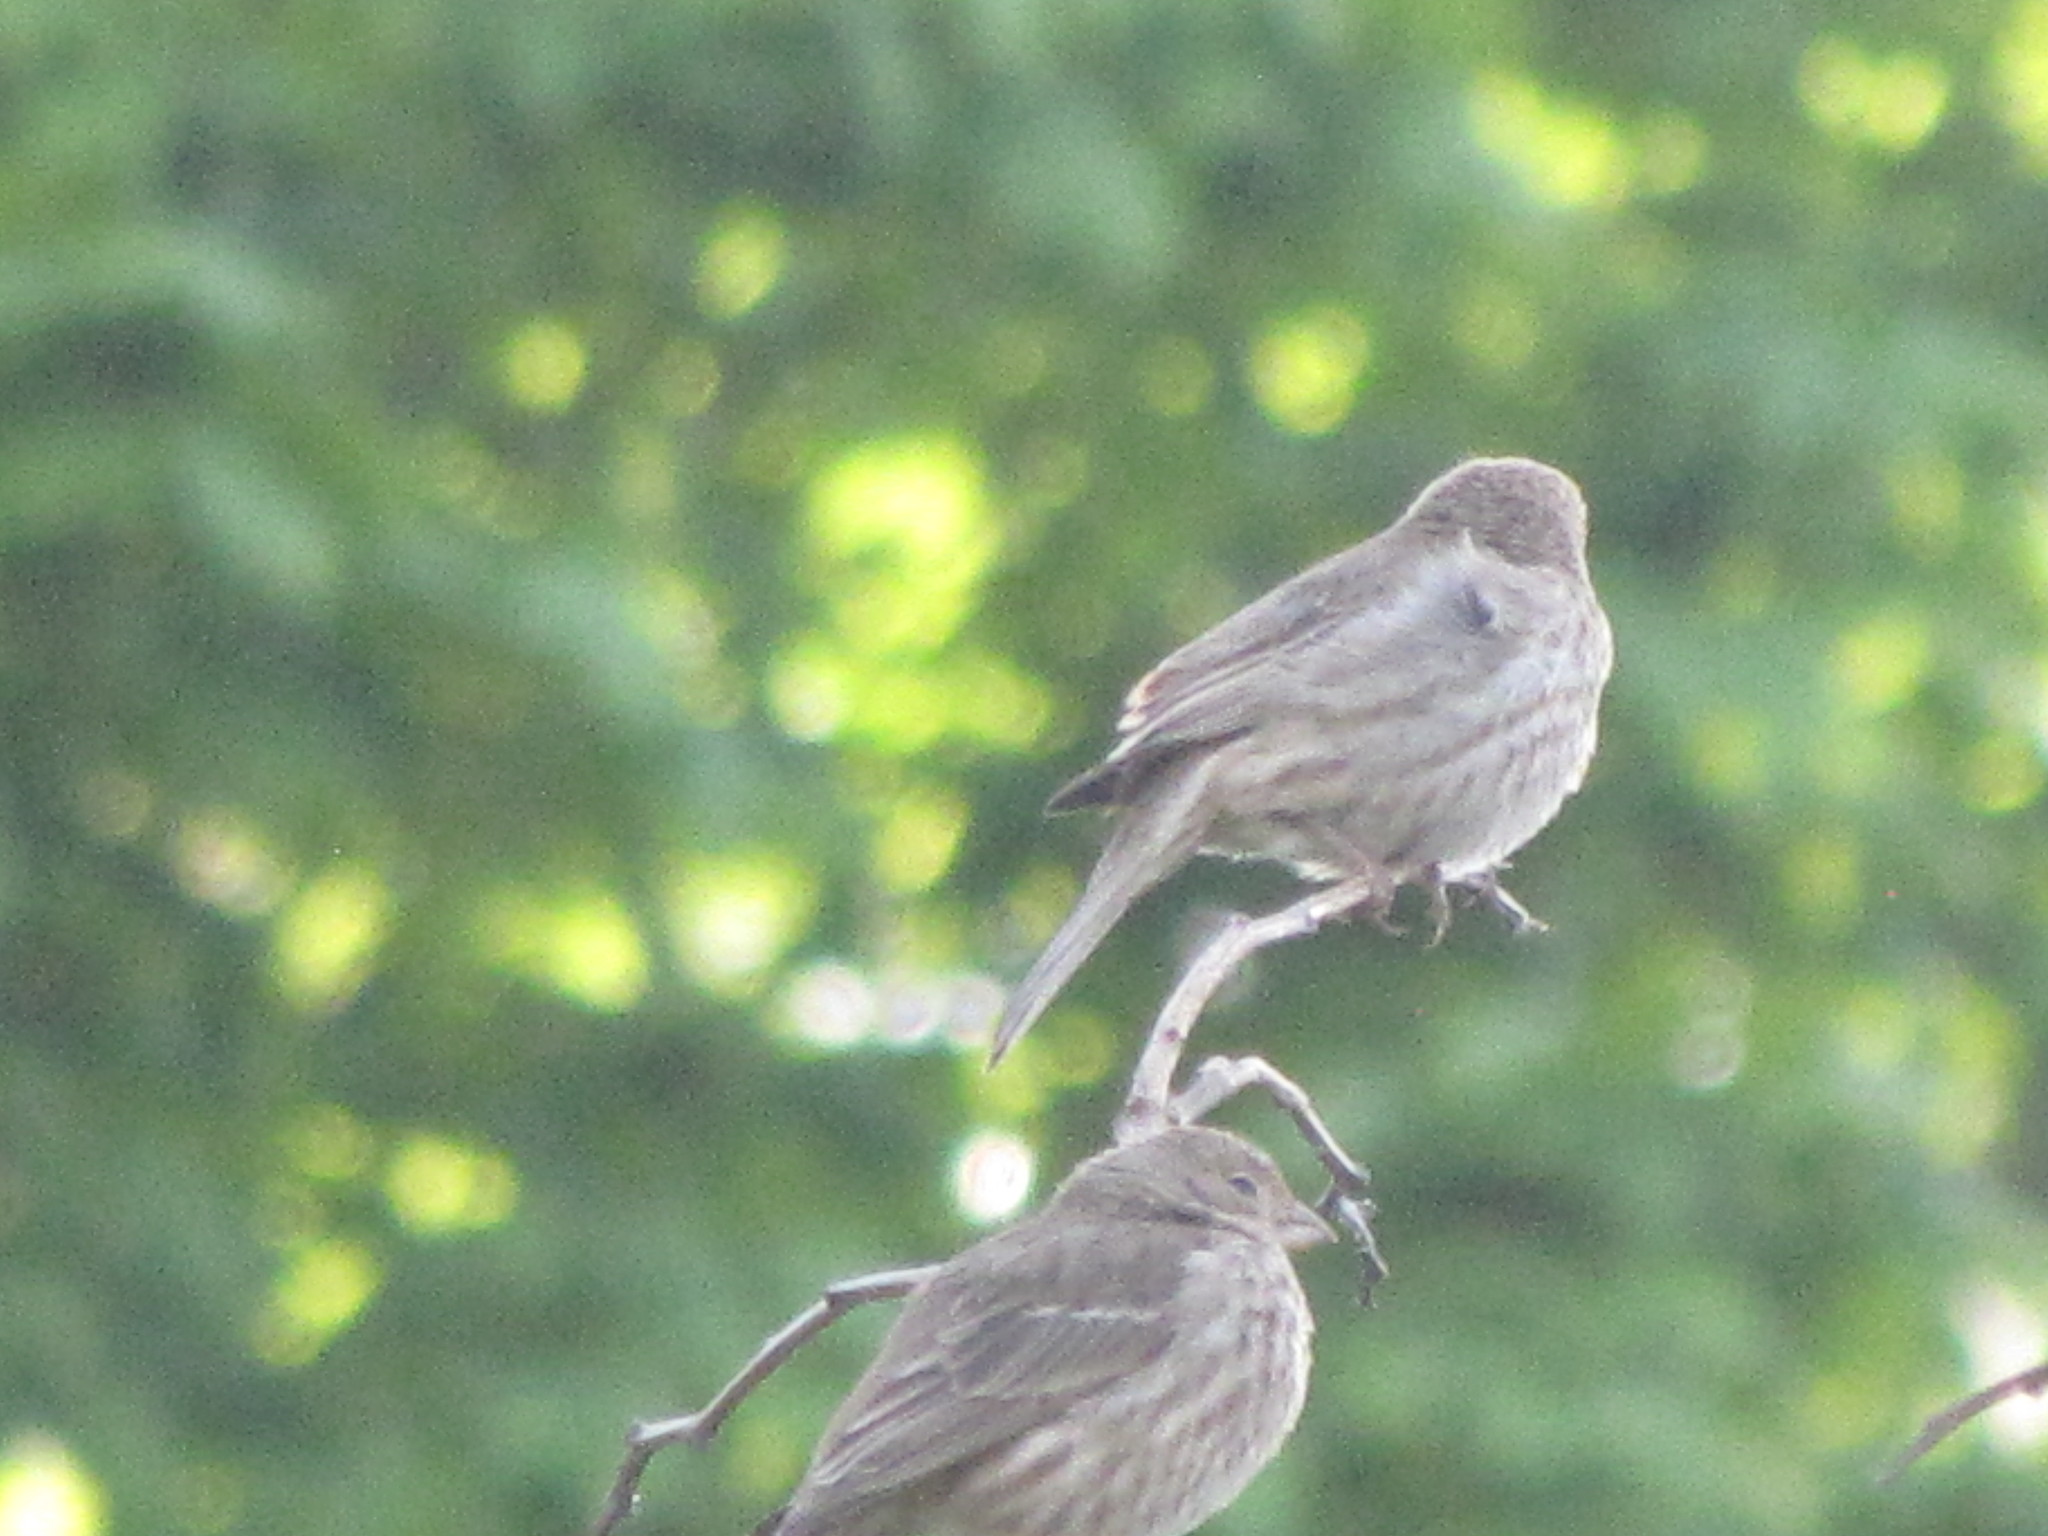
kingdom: Animalia
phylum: Chordata
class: Aves
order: Passeriformes
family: Fringillidae
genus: Haemorhous
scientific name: Haemorhous mexicanus
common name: House finch
